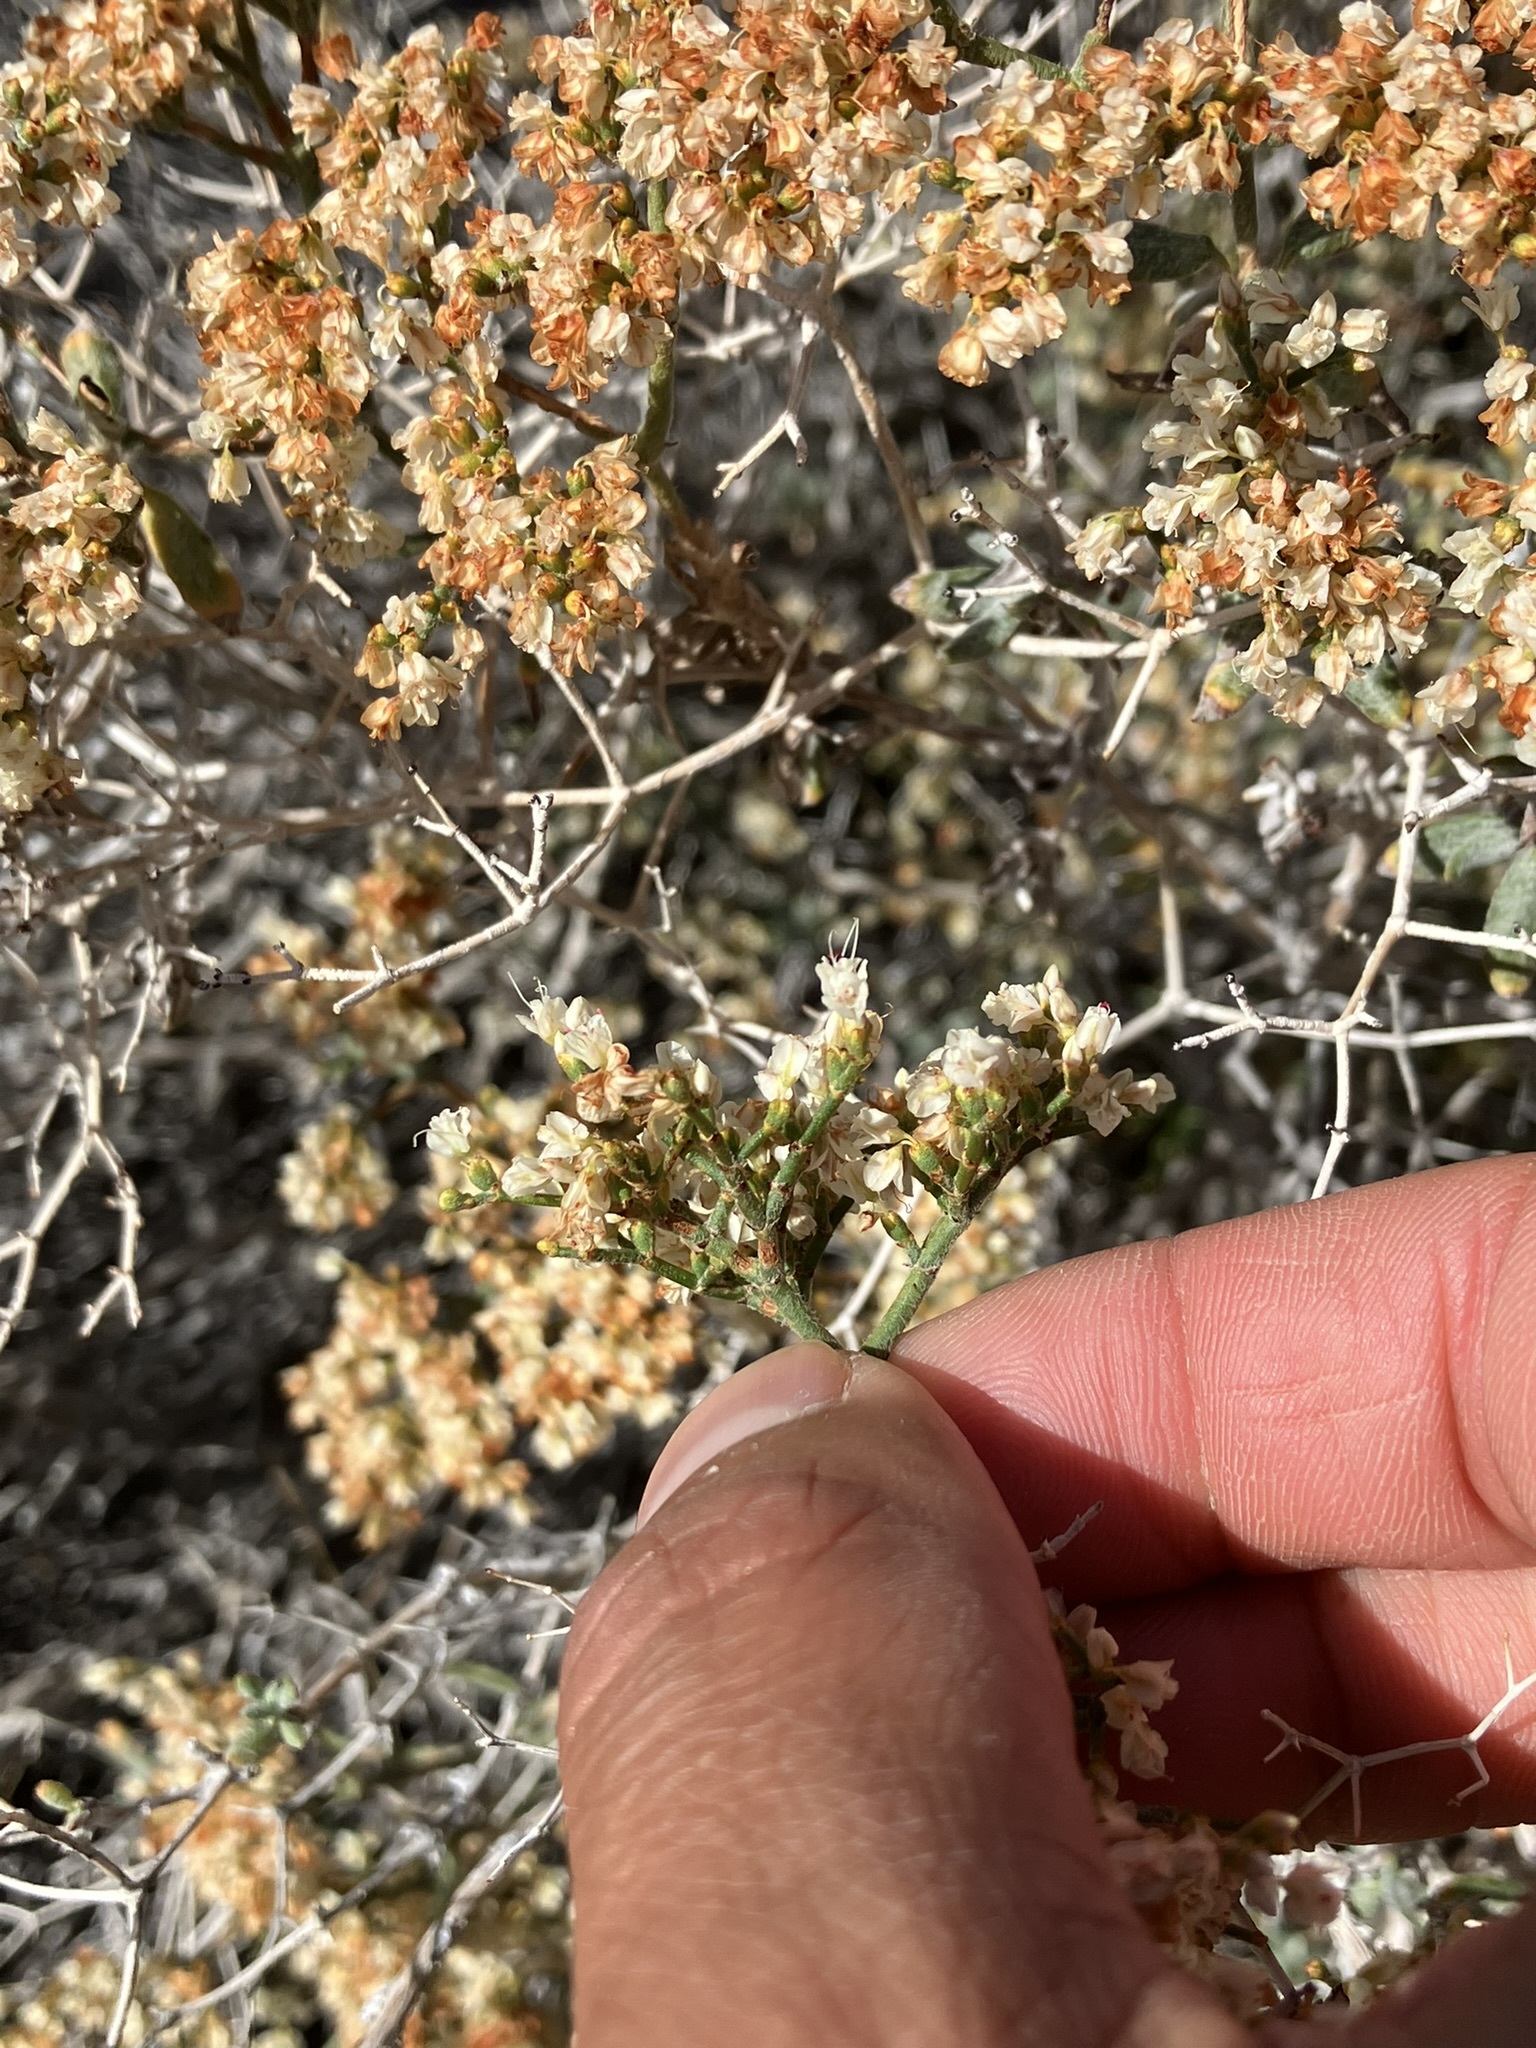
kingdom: Plantae
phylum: Tracheophyta
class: Magnoliopsida
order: Caryophyllales
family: Polygonaceae
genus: Eriogonum
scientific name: Eriogonum heermannii
